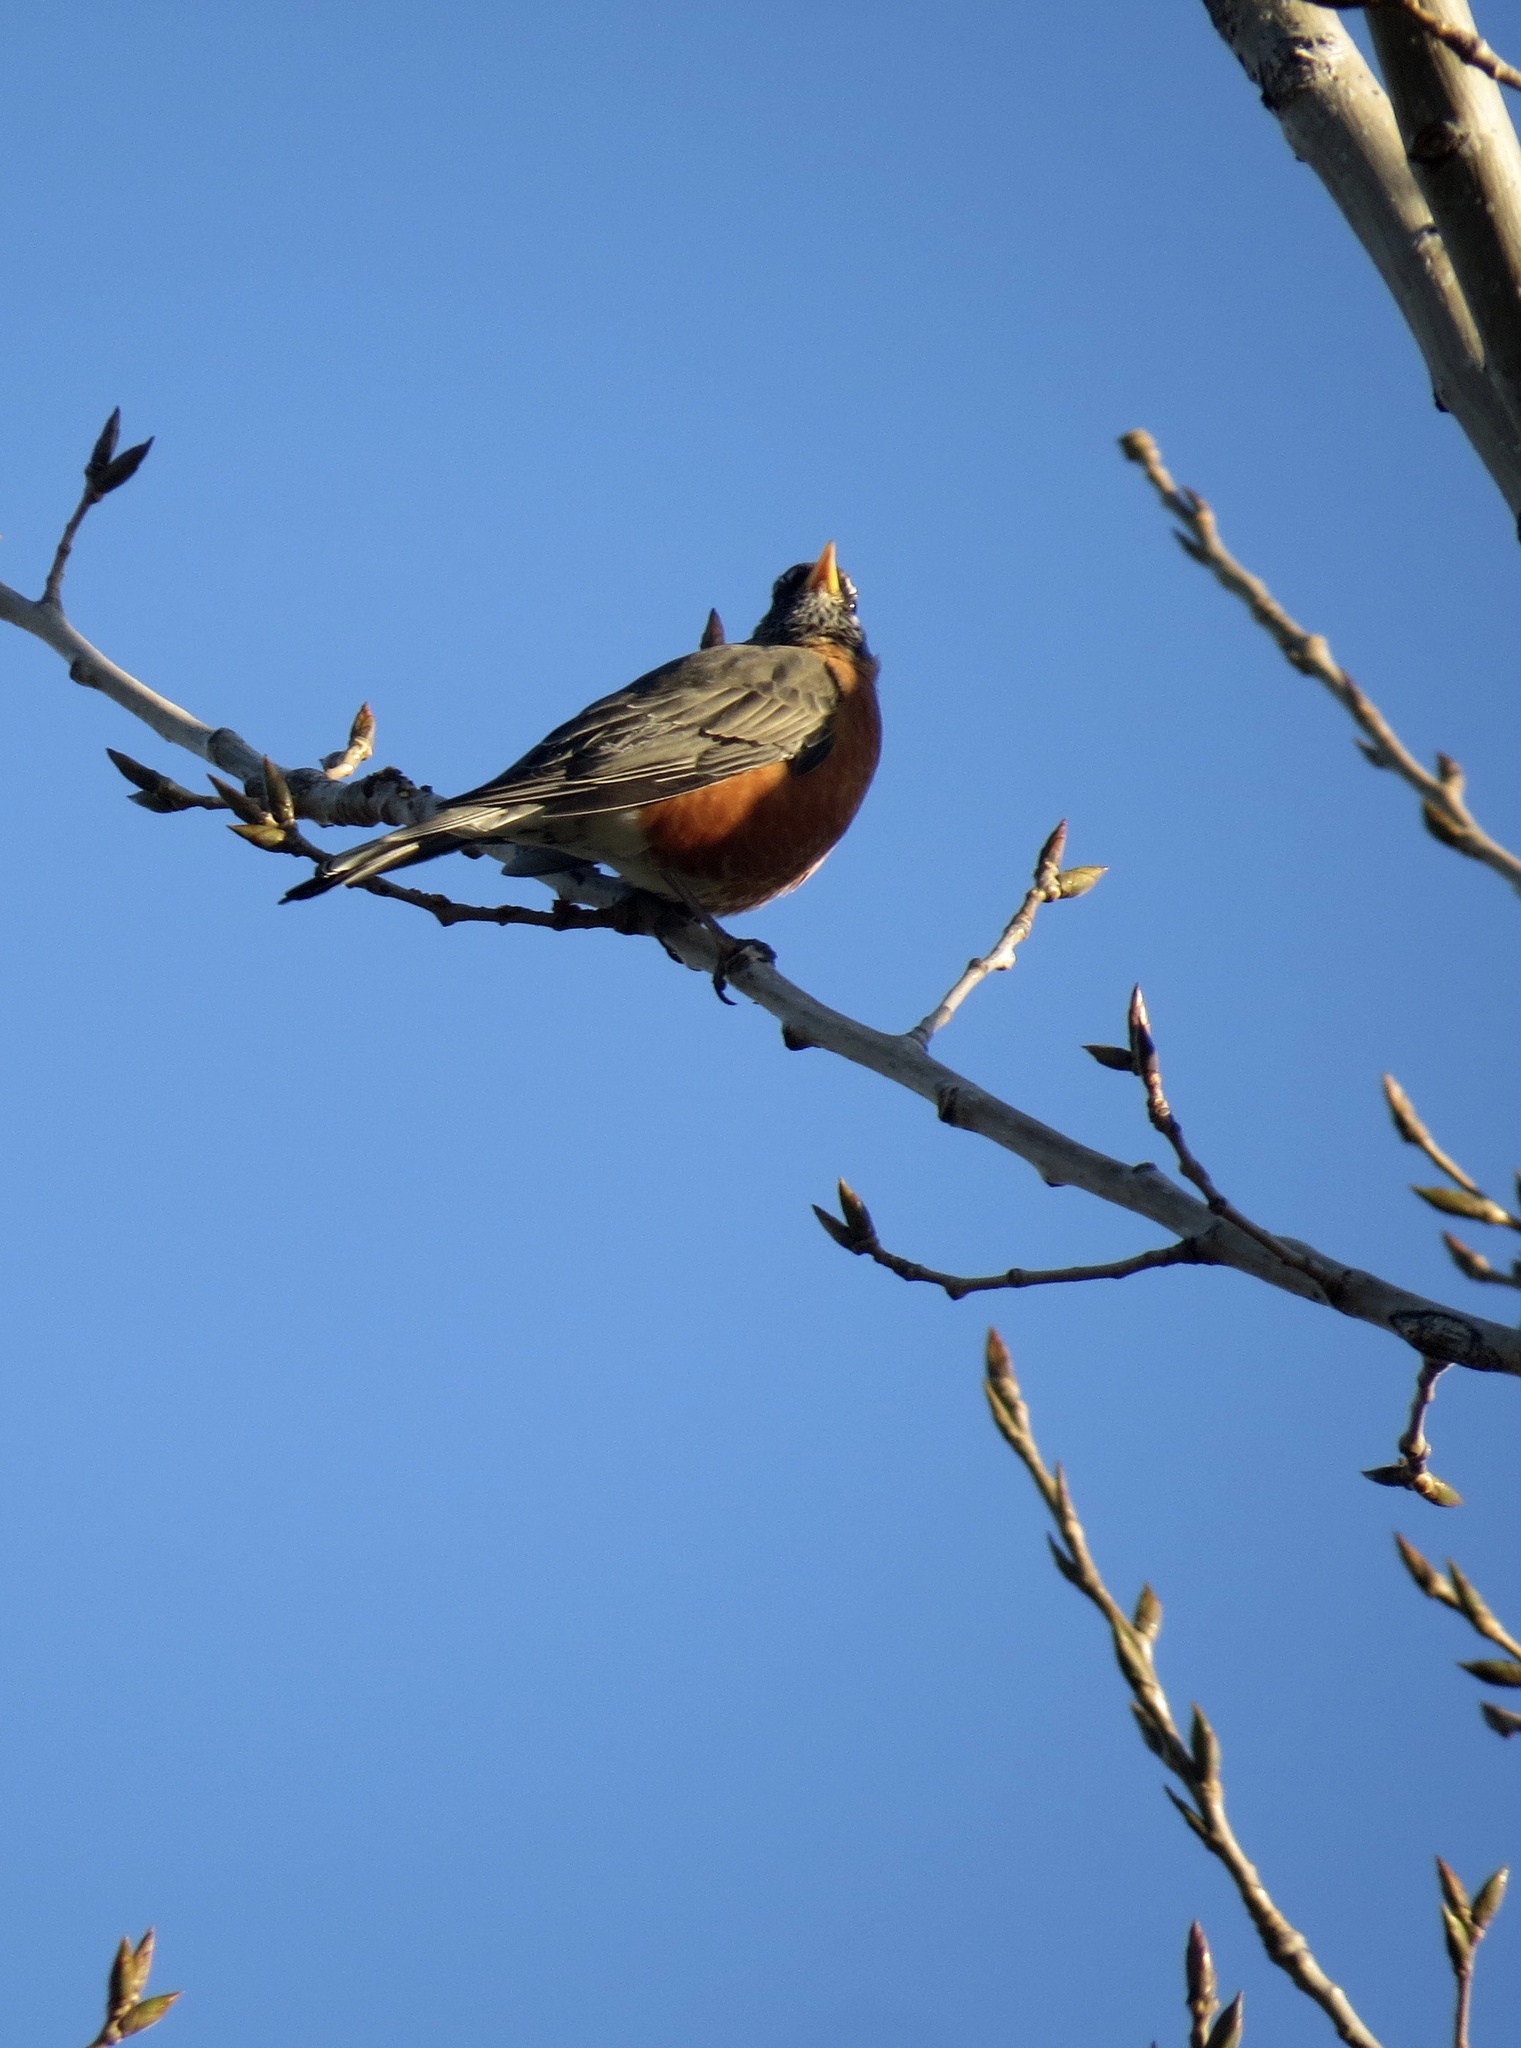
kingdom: Animalia
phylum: Chordata
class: Aves
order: Passeriformes
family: Turdidae
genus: Turdus
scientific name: Turdus migratorius
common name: American robin
